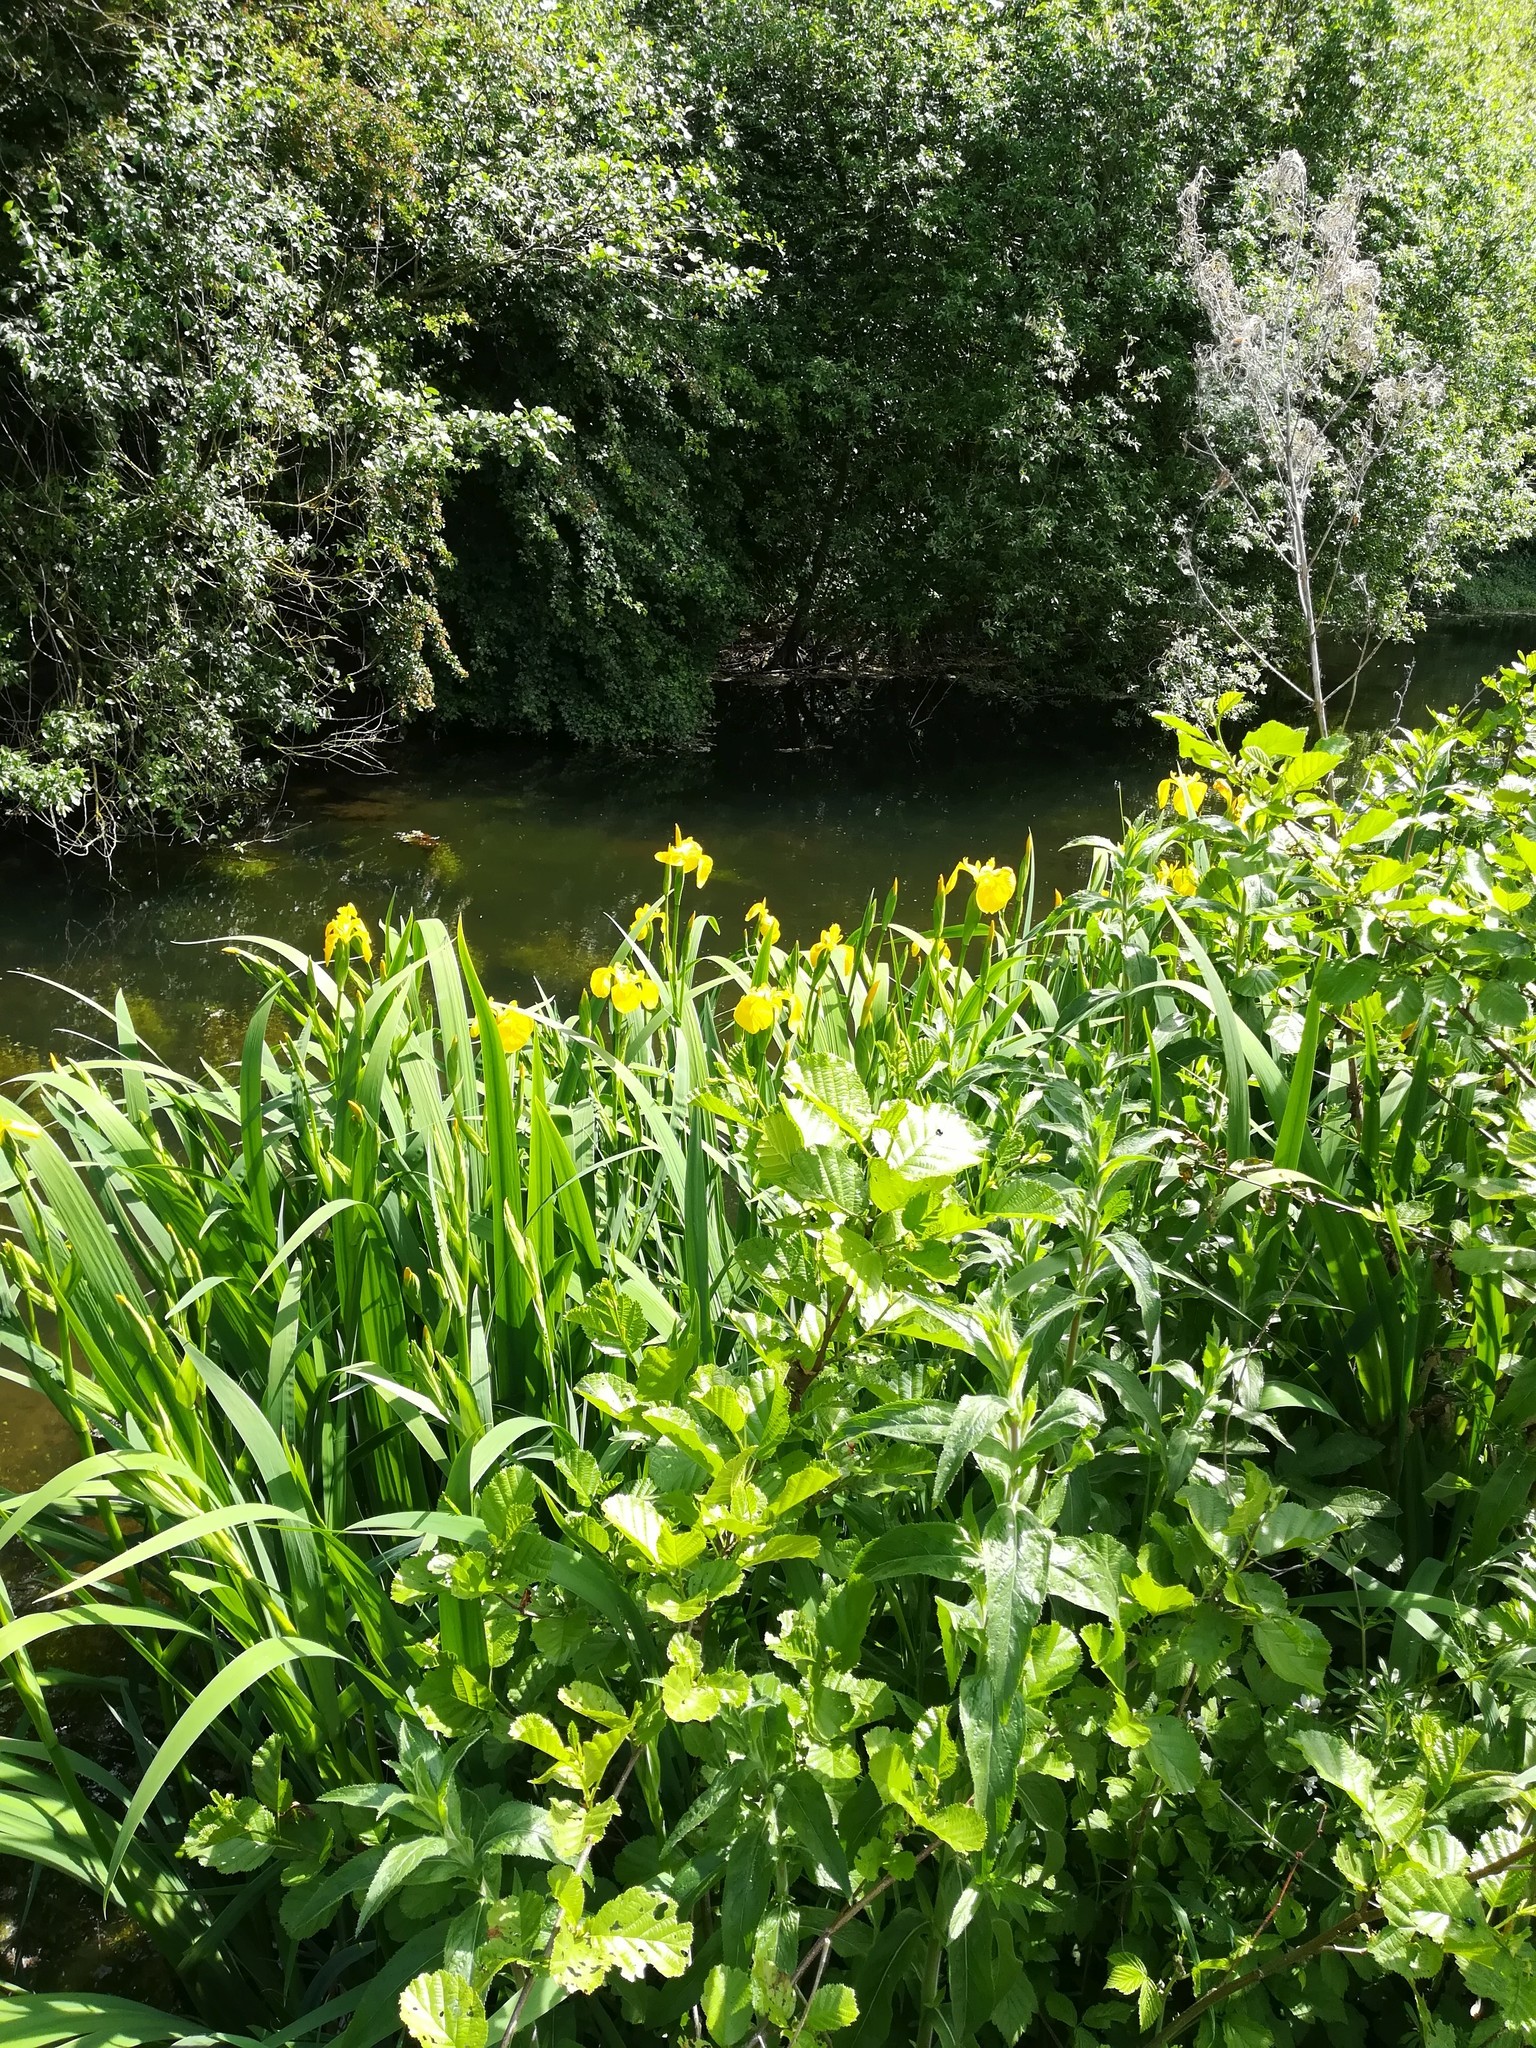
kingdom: Plantae
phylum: Tracheophyta
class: Liliopsida
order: Asparagales
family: Iridaceae
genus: Iris
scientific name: Iris pseudacorus
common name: Yellow flag
